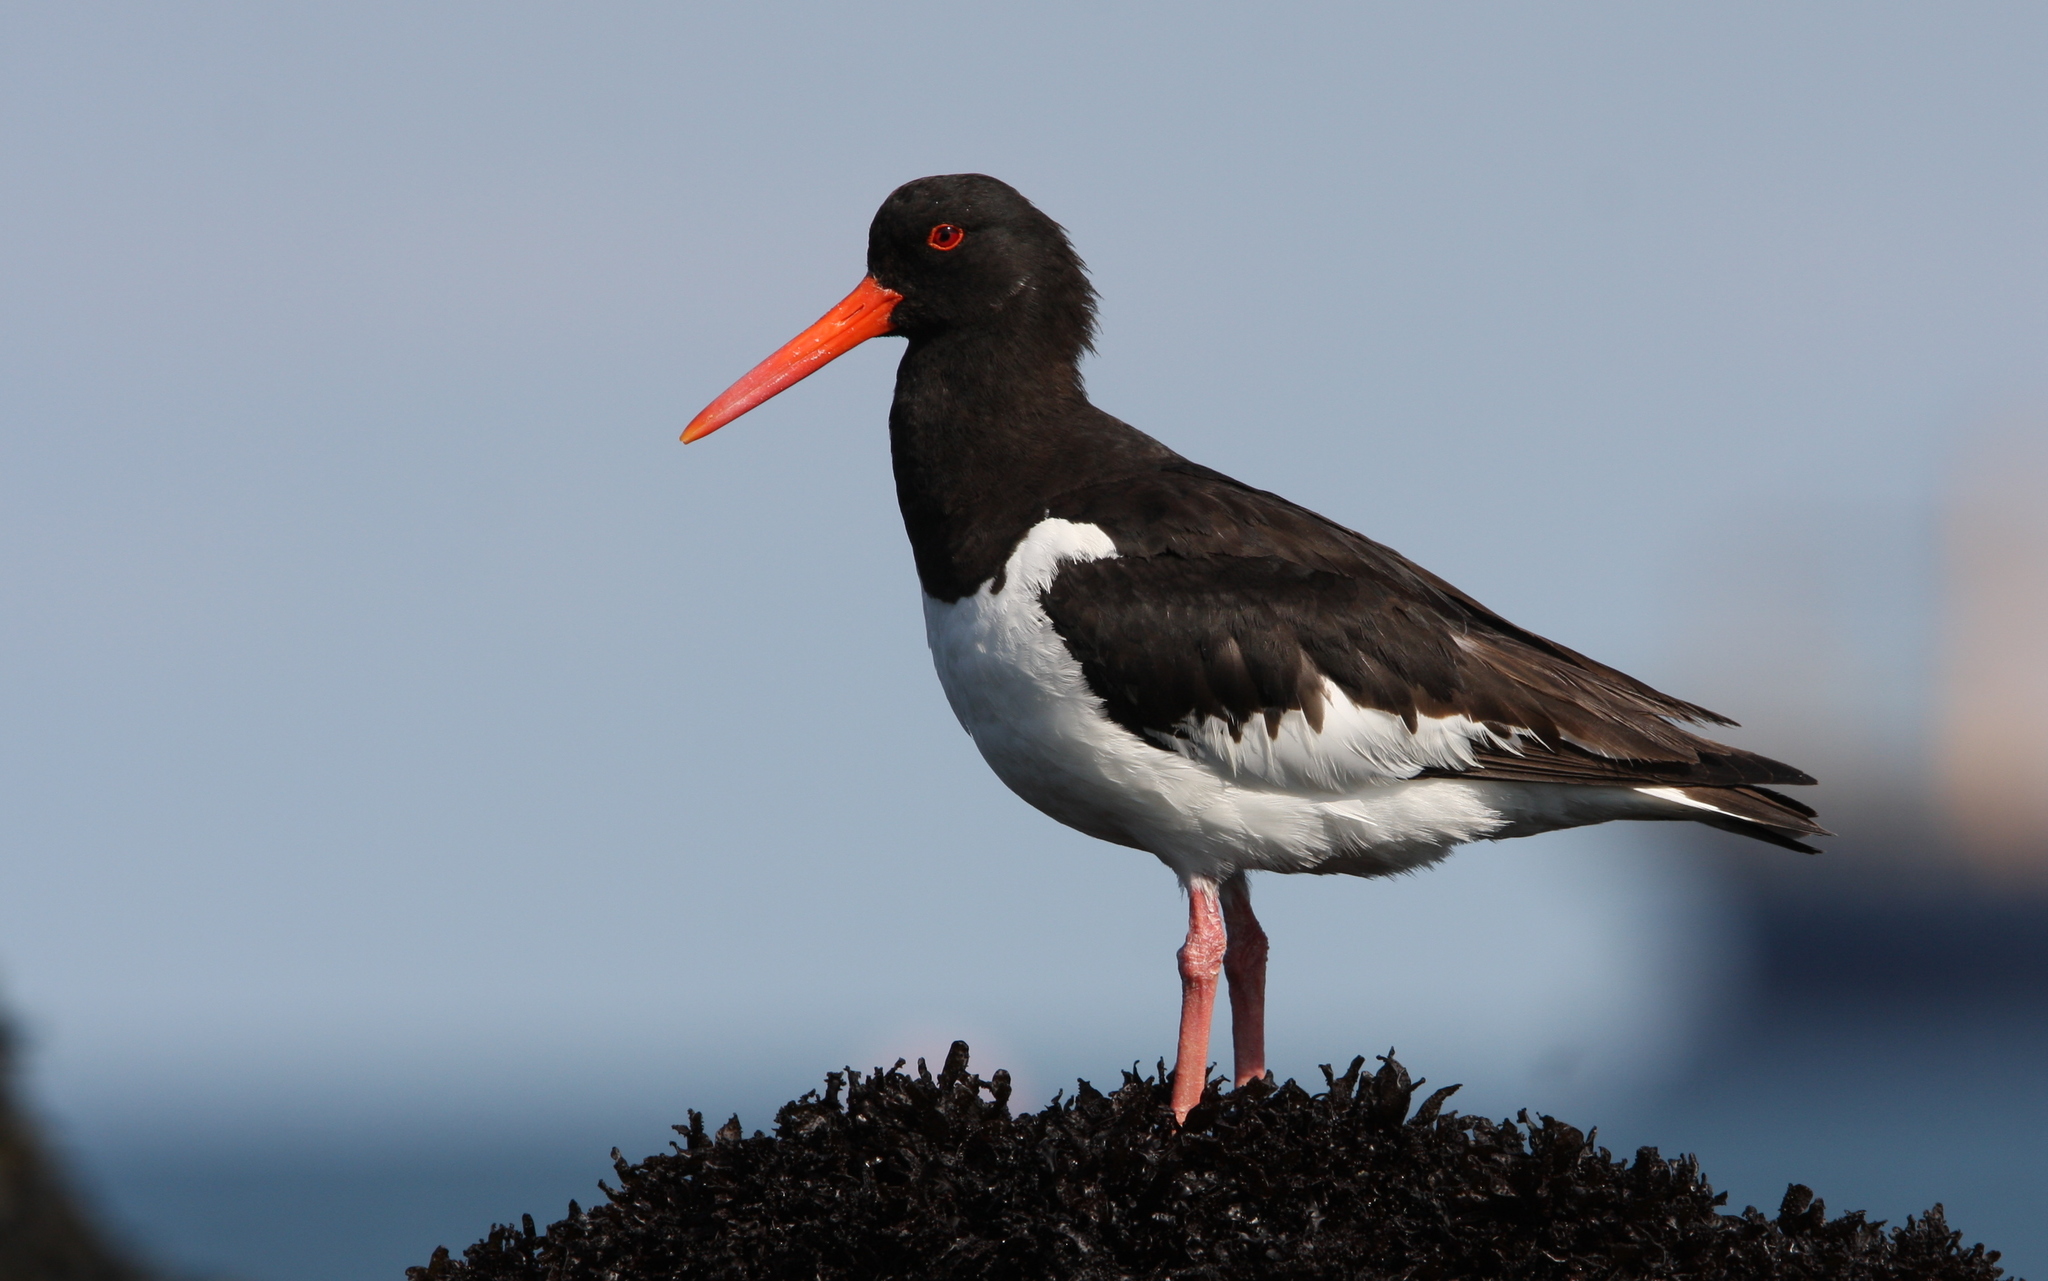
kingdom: Animalia
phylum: Chordata
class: Aves
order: Charadriiformes
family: Haematopodidae
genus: Haematopus
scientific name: Haematopus ostralegus
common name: Eurasian oystercatcher
